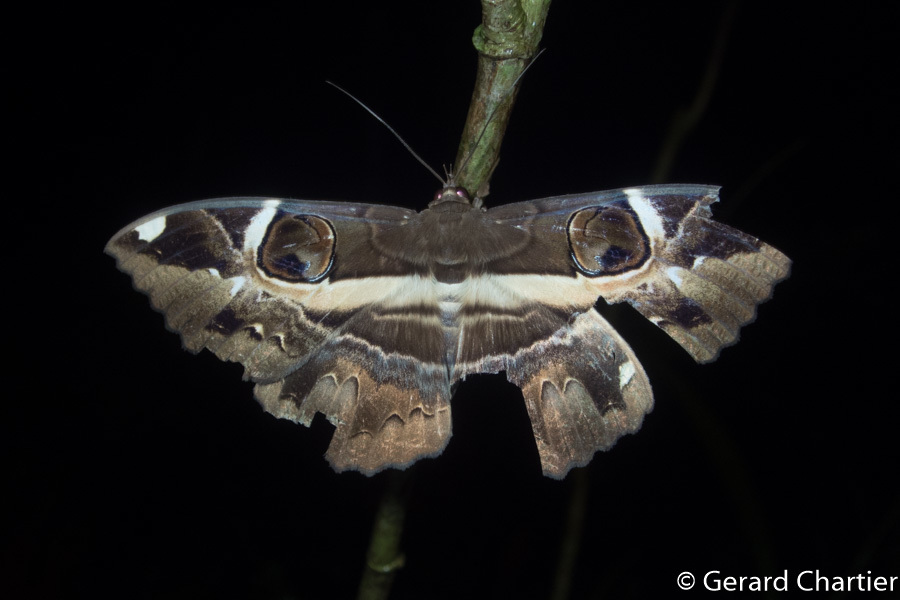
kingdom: Animalia
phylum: Arthropoda
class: Insecta
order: Lepidoptera
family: Erebidae
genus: Erebus
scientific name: Erebus ephesperis
